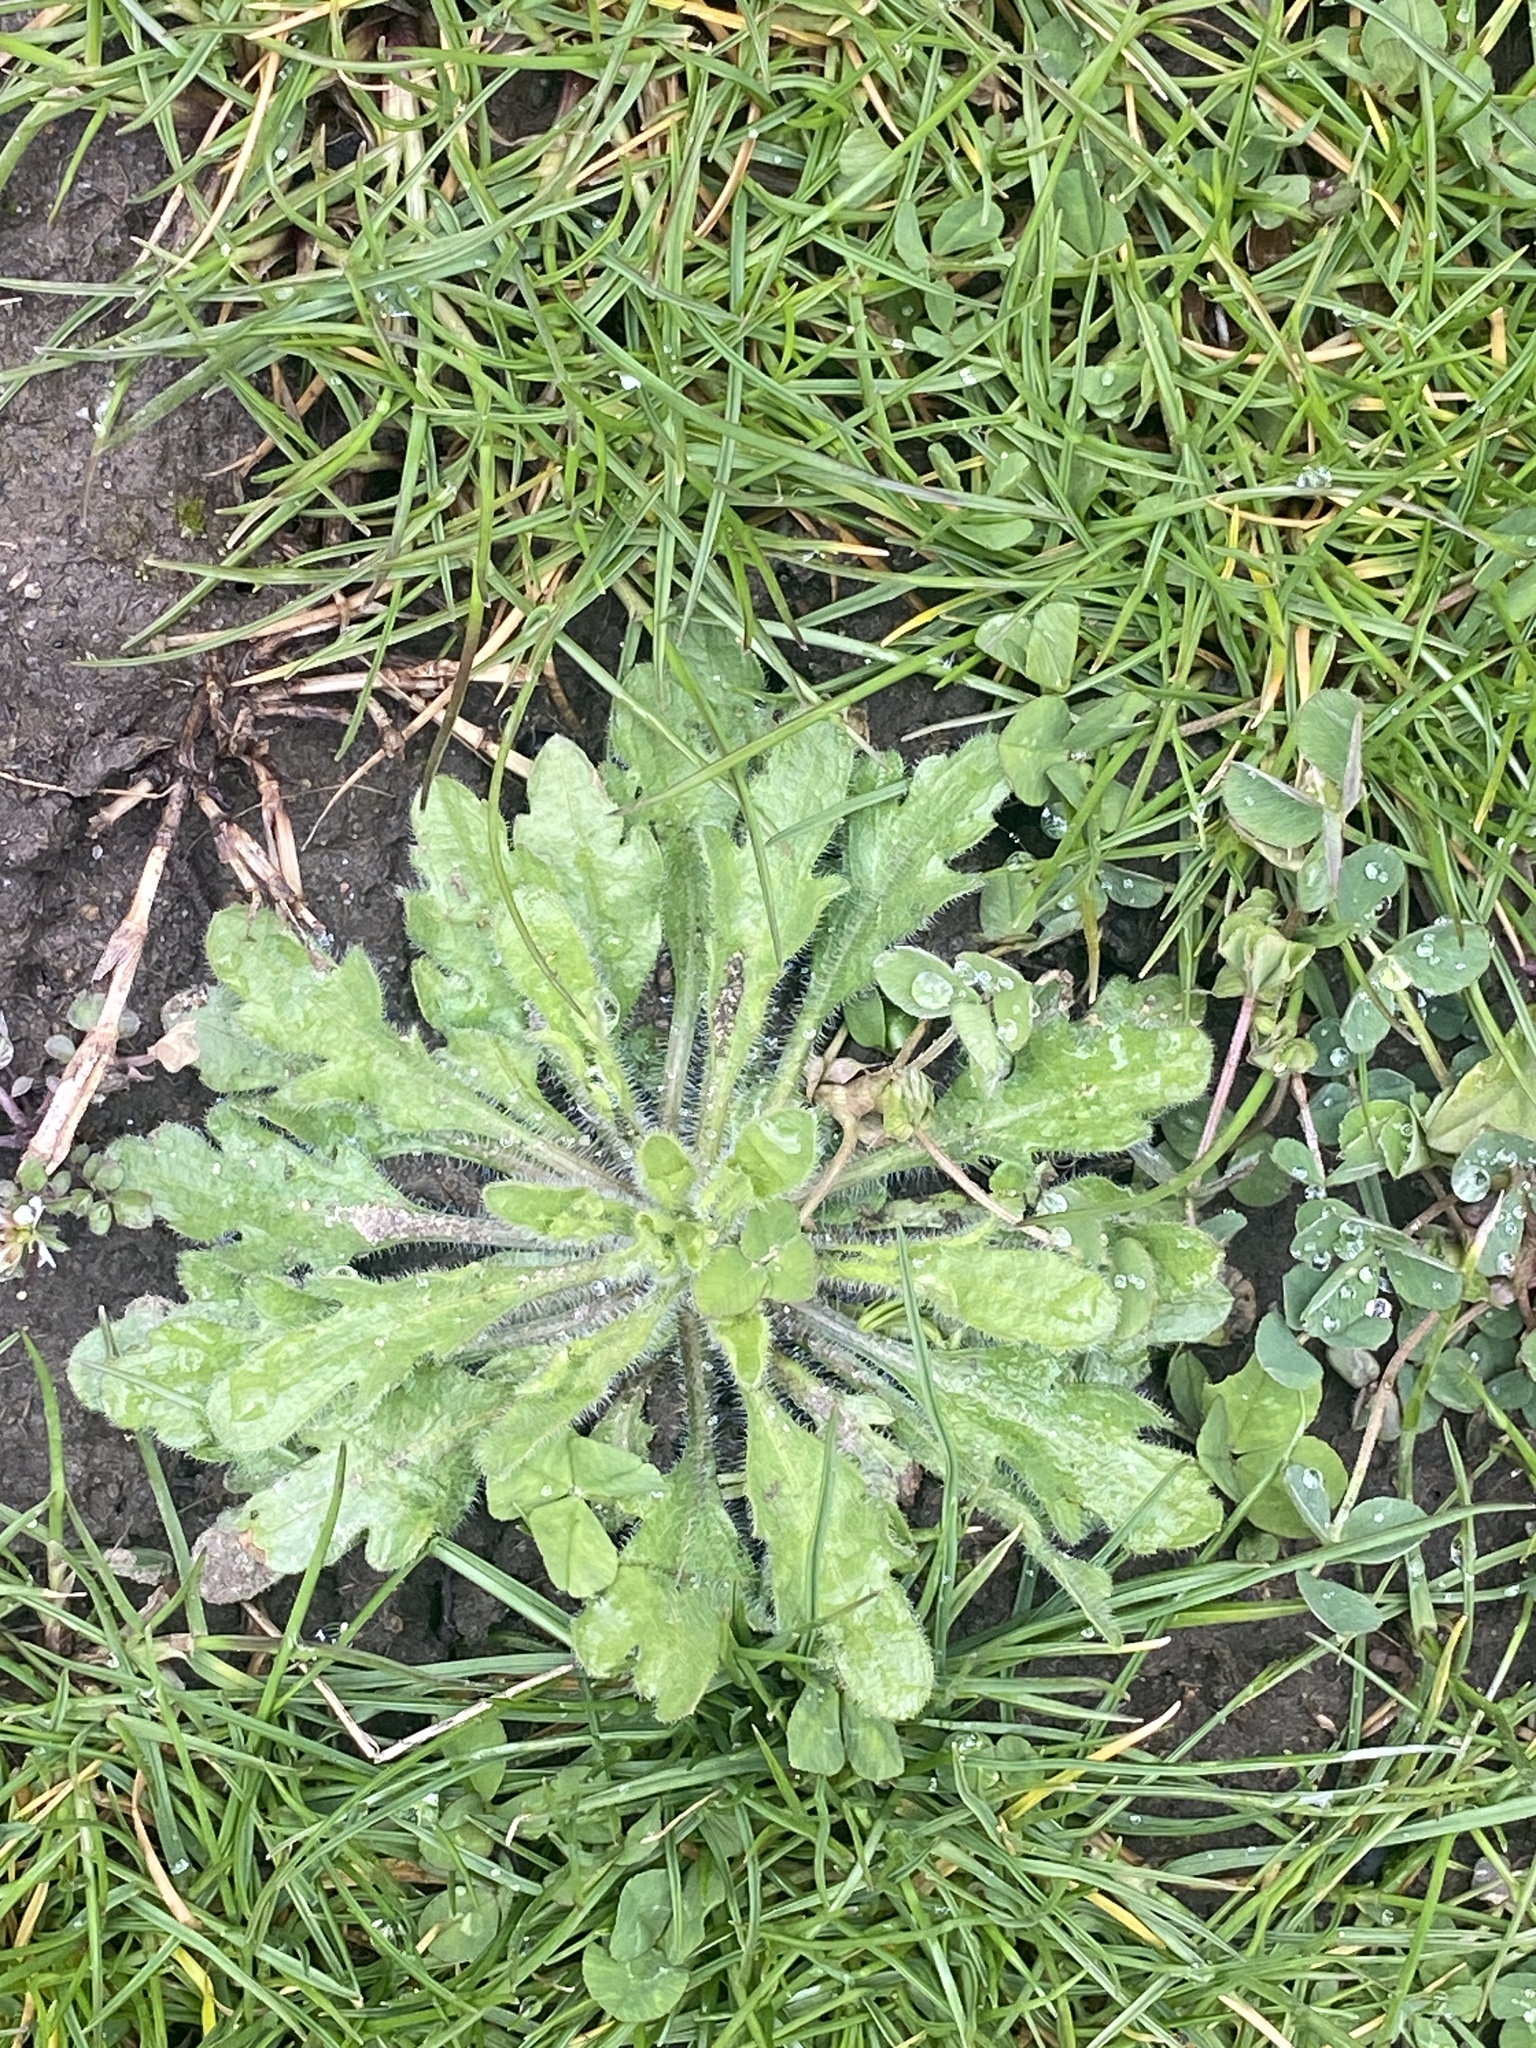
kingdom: Plantae
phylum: Tracheophyta
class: Magnoliopsida
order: Asterales
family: Asteraceae
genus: Erigeron
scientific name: Erigeron canadensis
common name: Canadian fleabane
